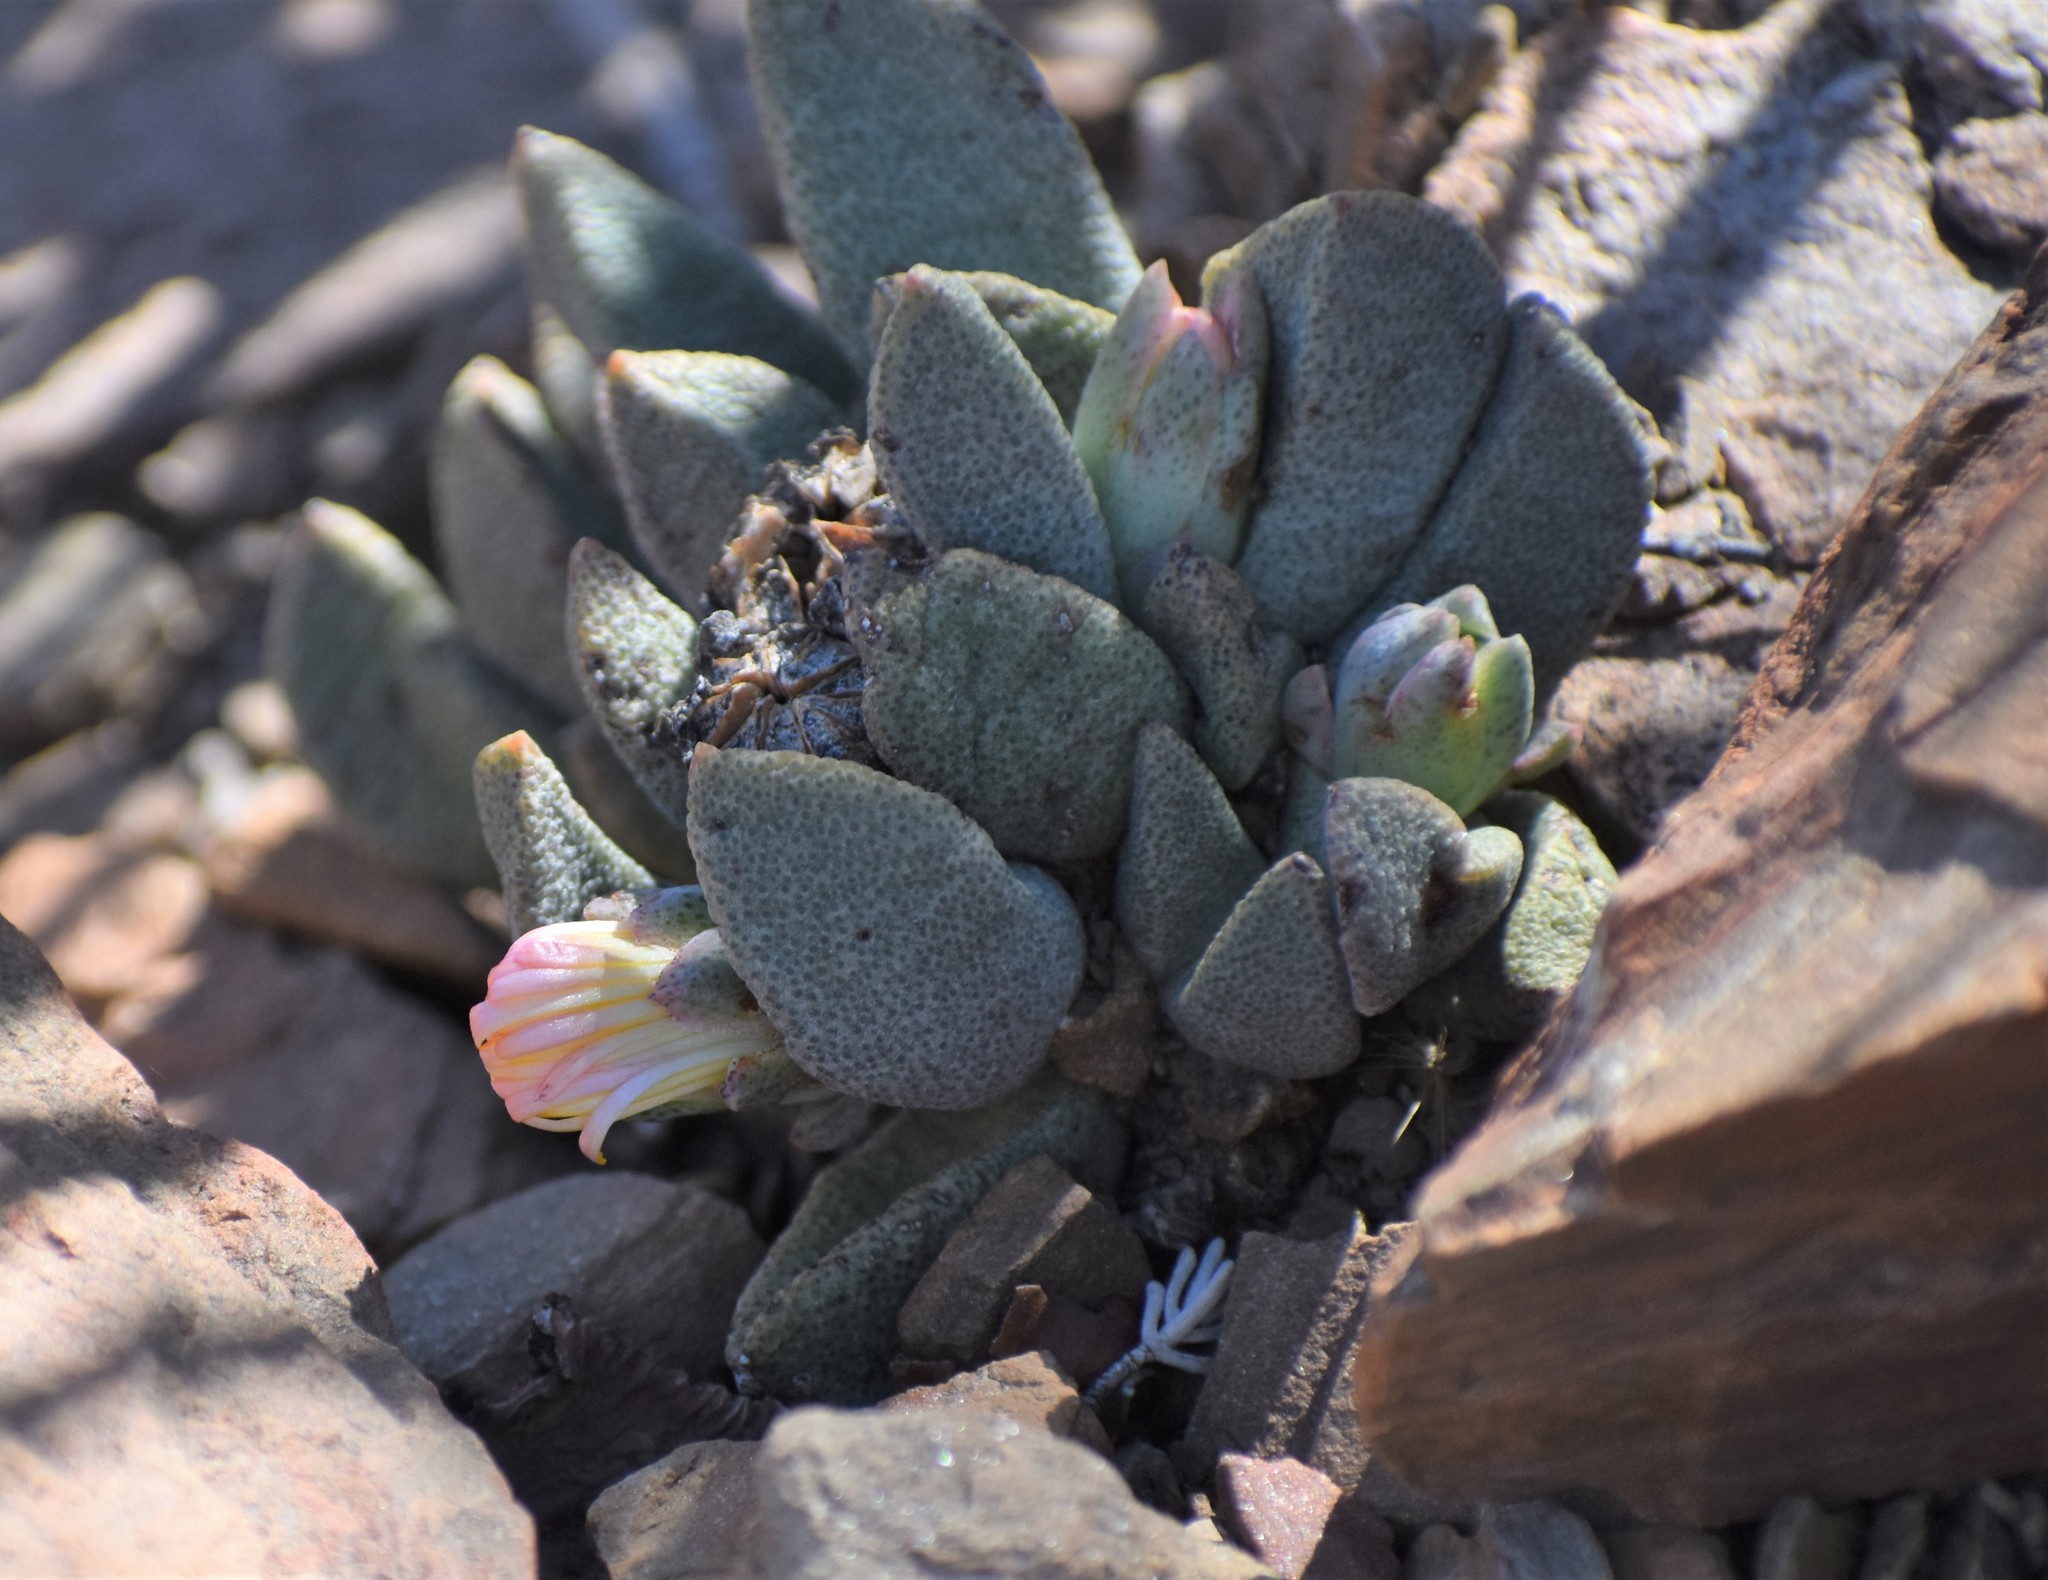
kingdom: Plantae
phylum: Tracheophyta
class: Magnoliopsida
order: Caryophyllales
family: Aizoaceae
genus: Pleiospilos
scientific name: Pleiospilos compactus
